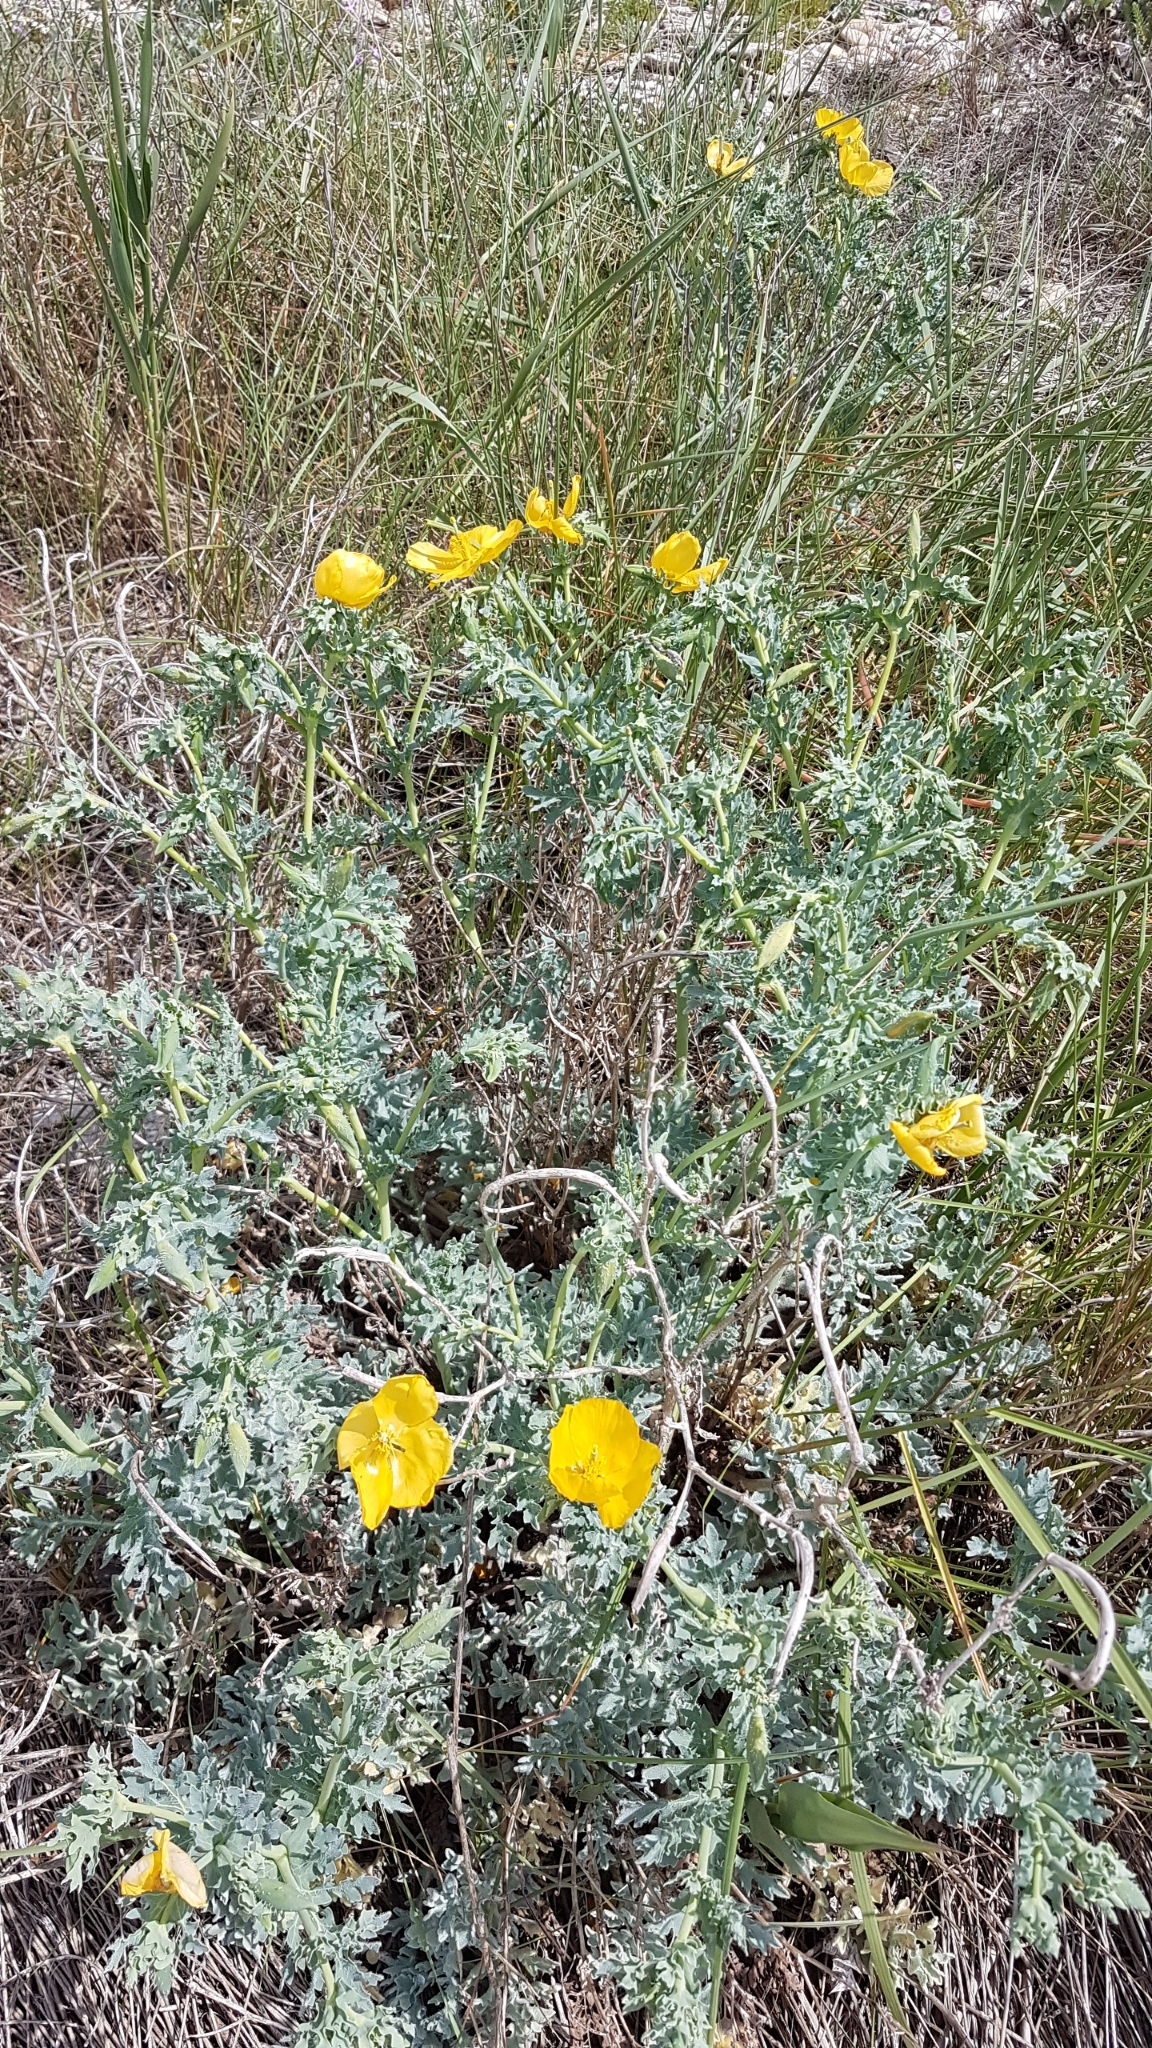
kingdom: Plantae
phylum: Tracheophyta
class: Magnoliopsida
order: Ranunculales
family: Papaveraceae
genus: Glaucium
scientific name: Glaucium flavum
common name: Yellow horned-poppy
